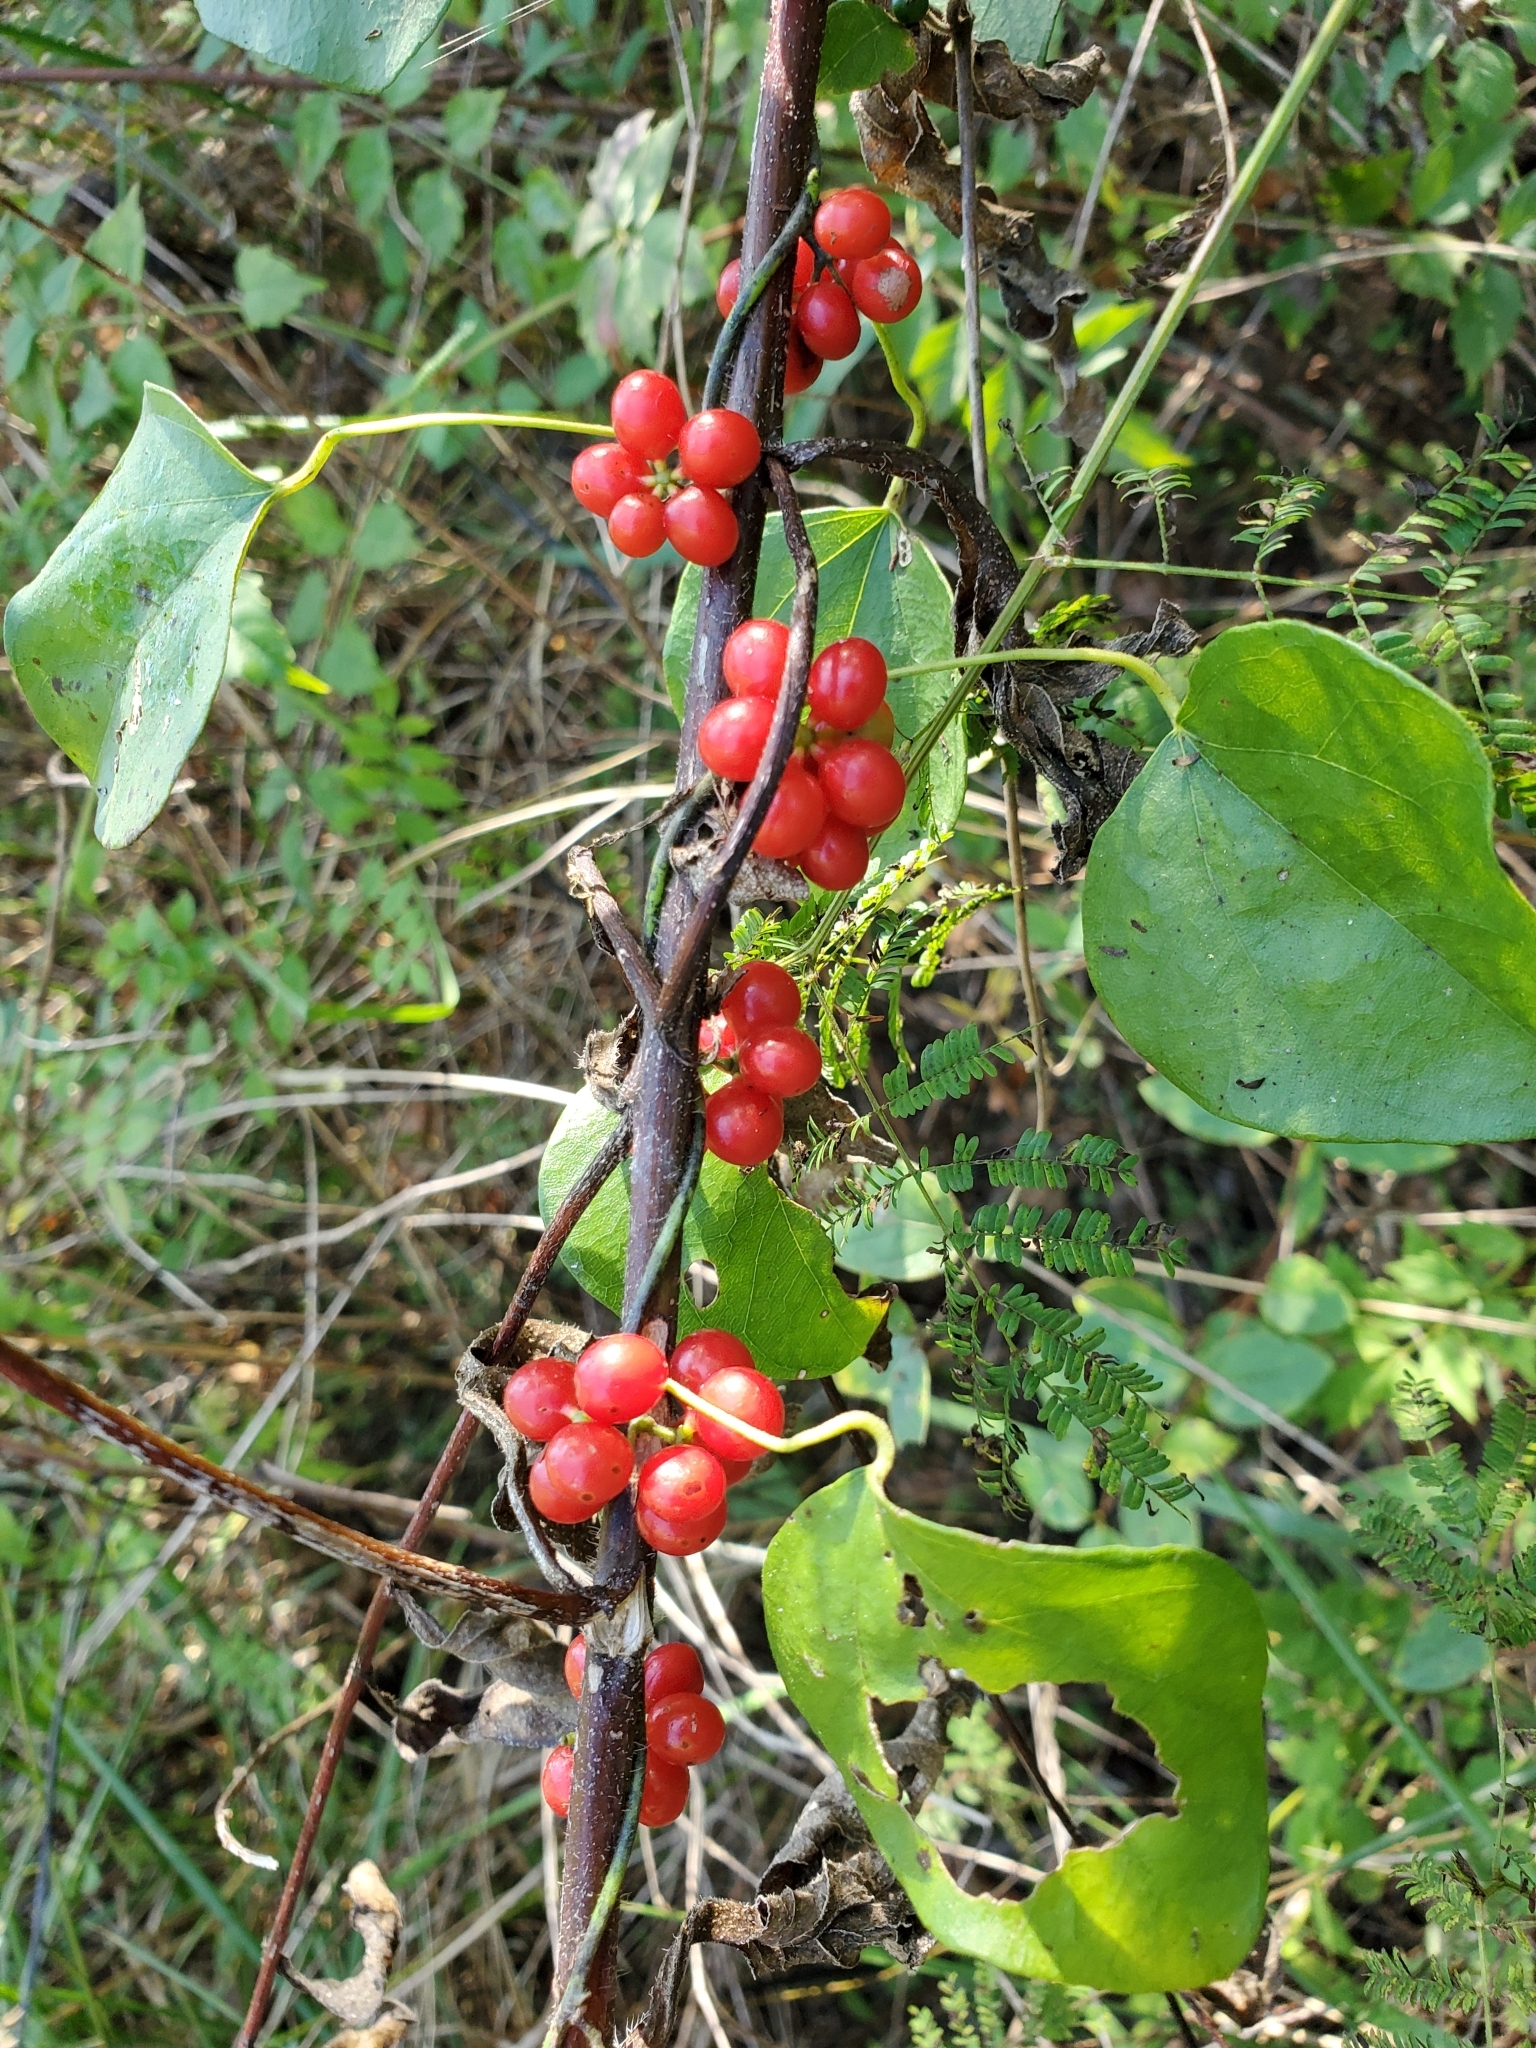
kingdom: Plantae
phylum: Tracheophyta
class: Magnoliopsida
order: Ranunculales
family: Menispermaceae
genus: Cocculus
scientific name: Cocculus carolinus
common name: Carolina moonseed
